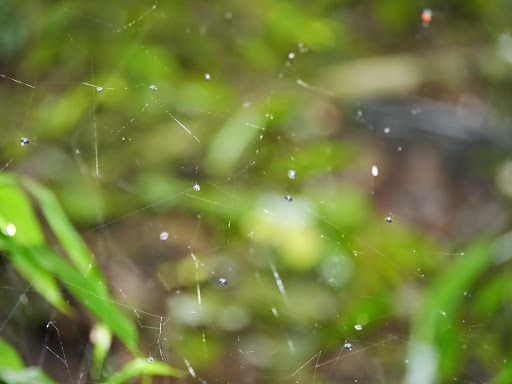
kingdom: Animalia
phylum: Arthropoda
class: Arachnida
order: Araneae
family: Araneidae
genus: Isoxya
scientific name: Isoxya
